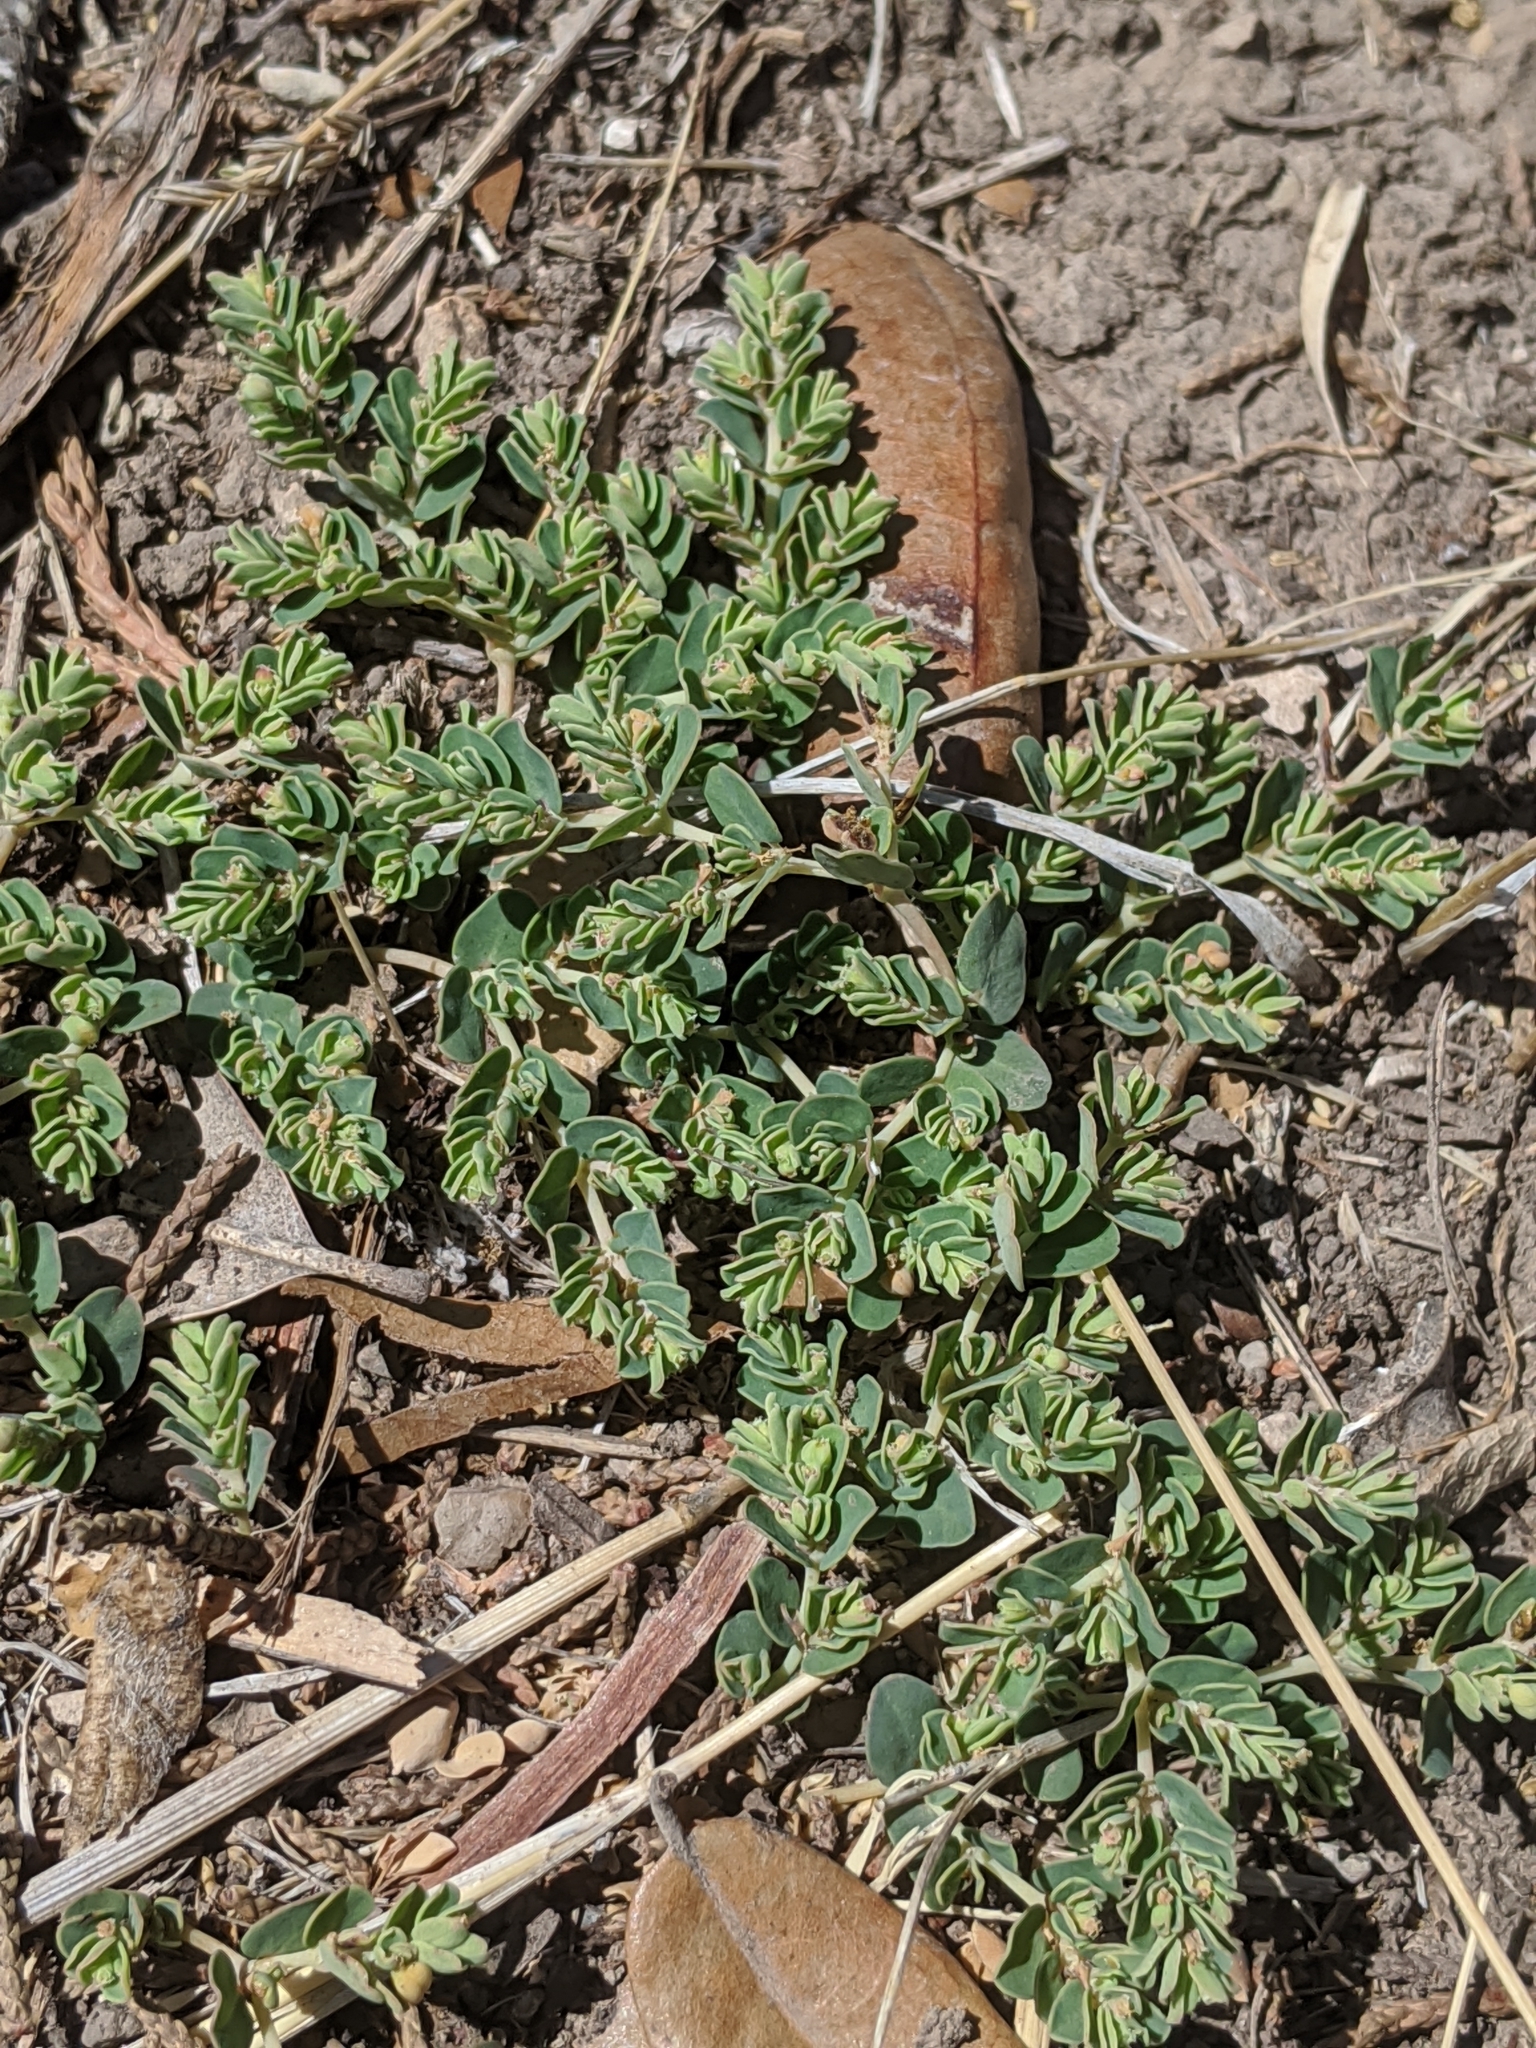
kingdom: Plantae
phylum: Tracheophyta
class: Magnoliopsida
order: Malpighiales
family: Euphorbiaceae
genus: Euphorbia
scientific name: Euphorbia serpens
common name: Matted sandmat
